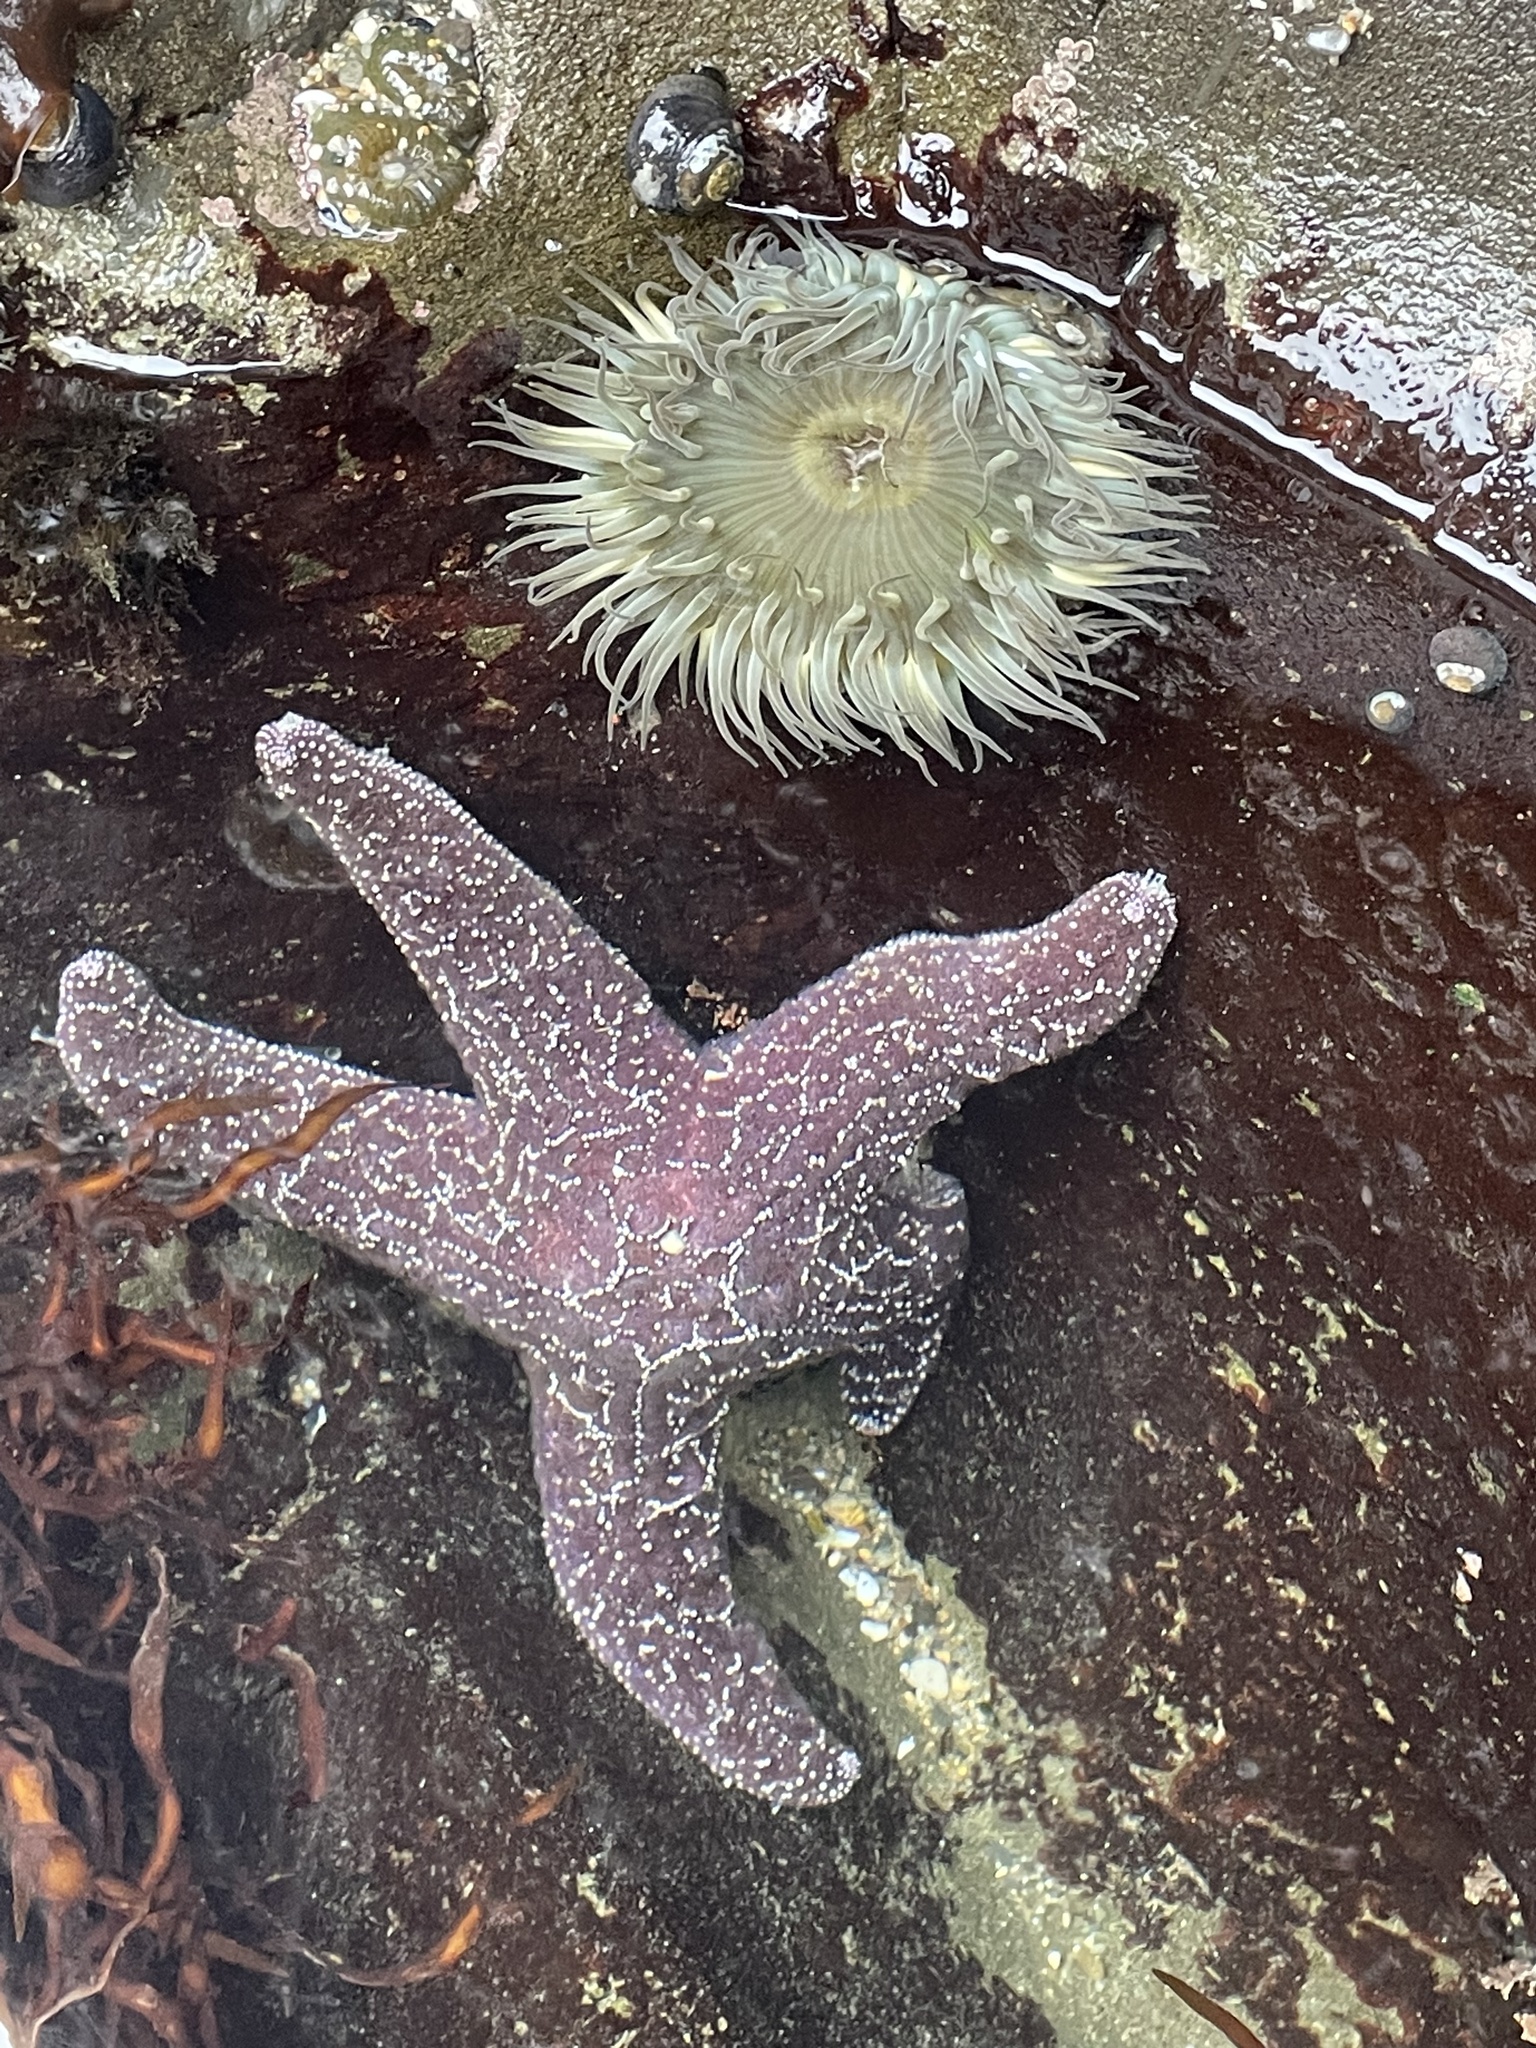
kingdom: Animalia
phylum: Echinodermata
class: Asteroidea
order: Forcipulatida
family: Asteriidae
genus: Pisaster
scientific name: Pisaster ochraceus
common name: Ochre stars
